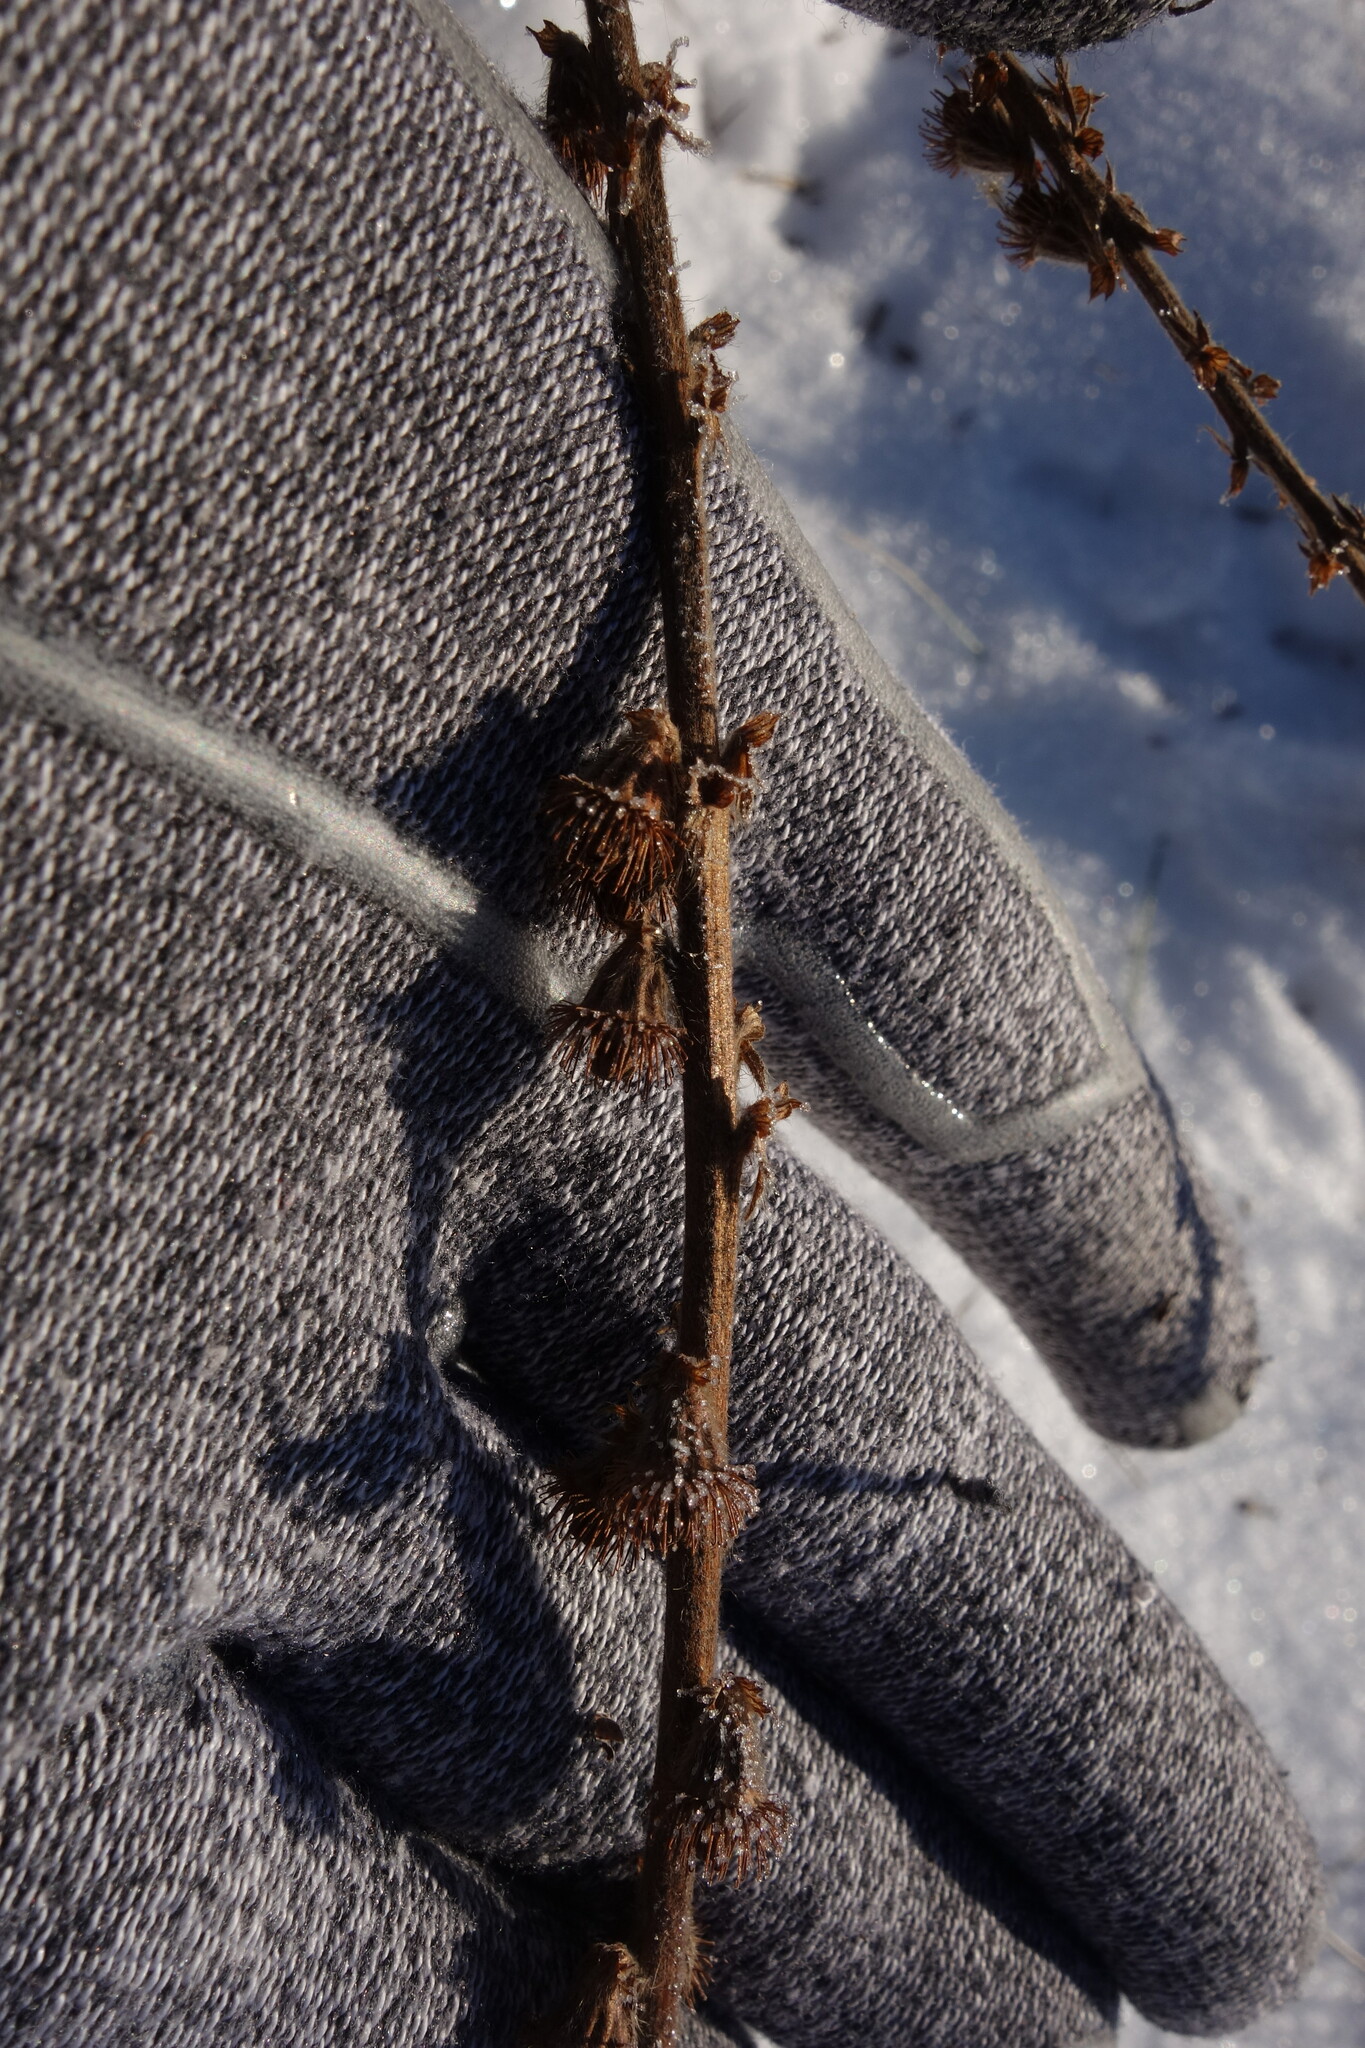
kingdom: Plantae
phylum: Tracheophyta
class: Magnoliopsida
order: Rosales
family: Rosaceae
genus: Agrimonia
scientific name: Agrimonia eupatoria
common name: Agrimony
